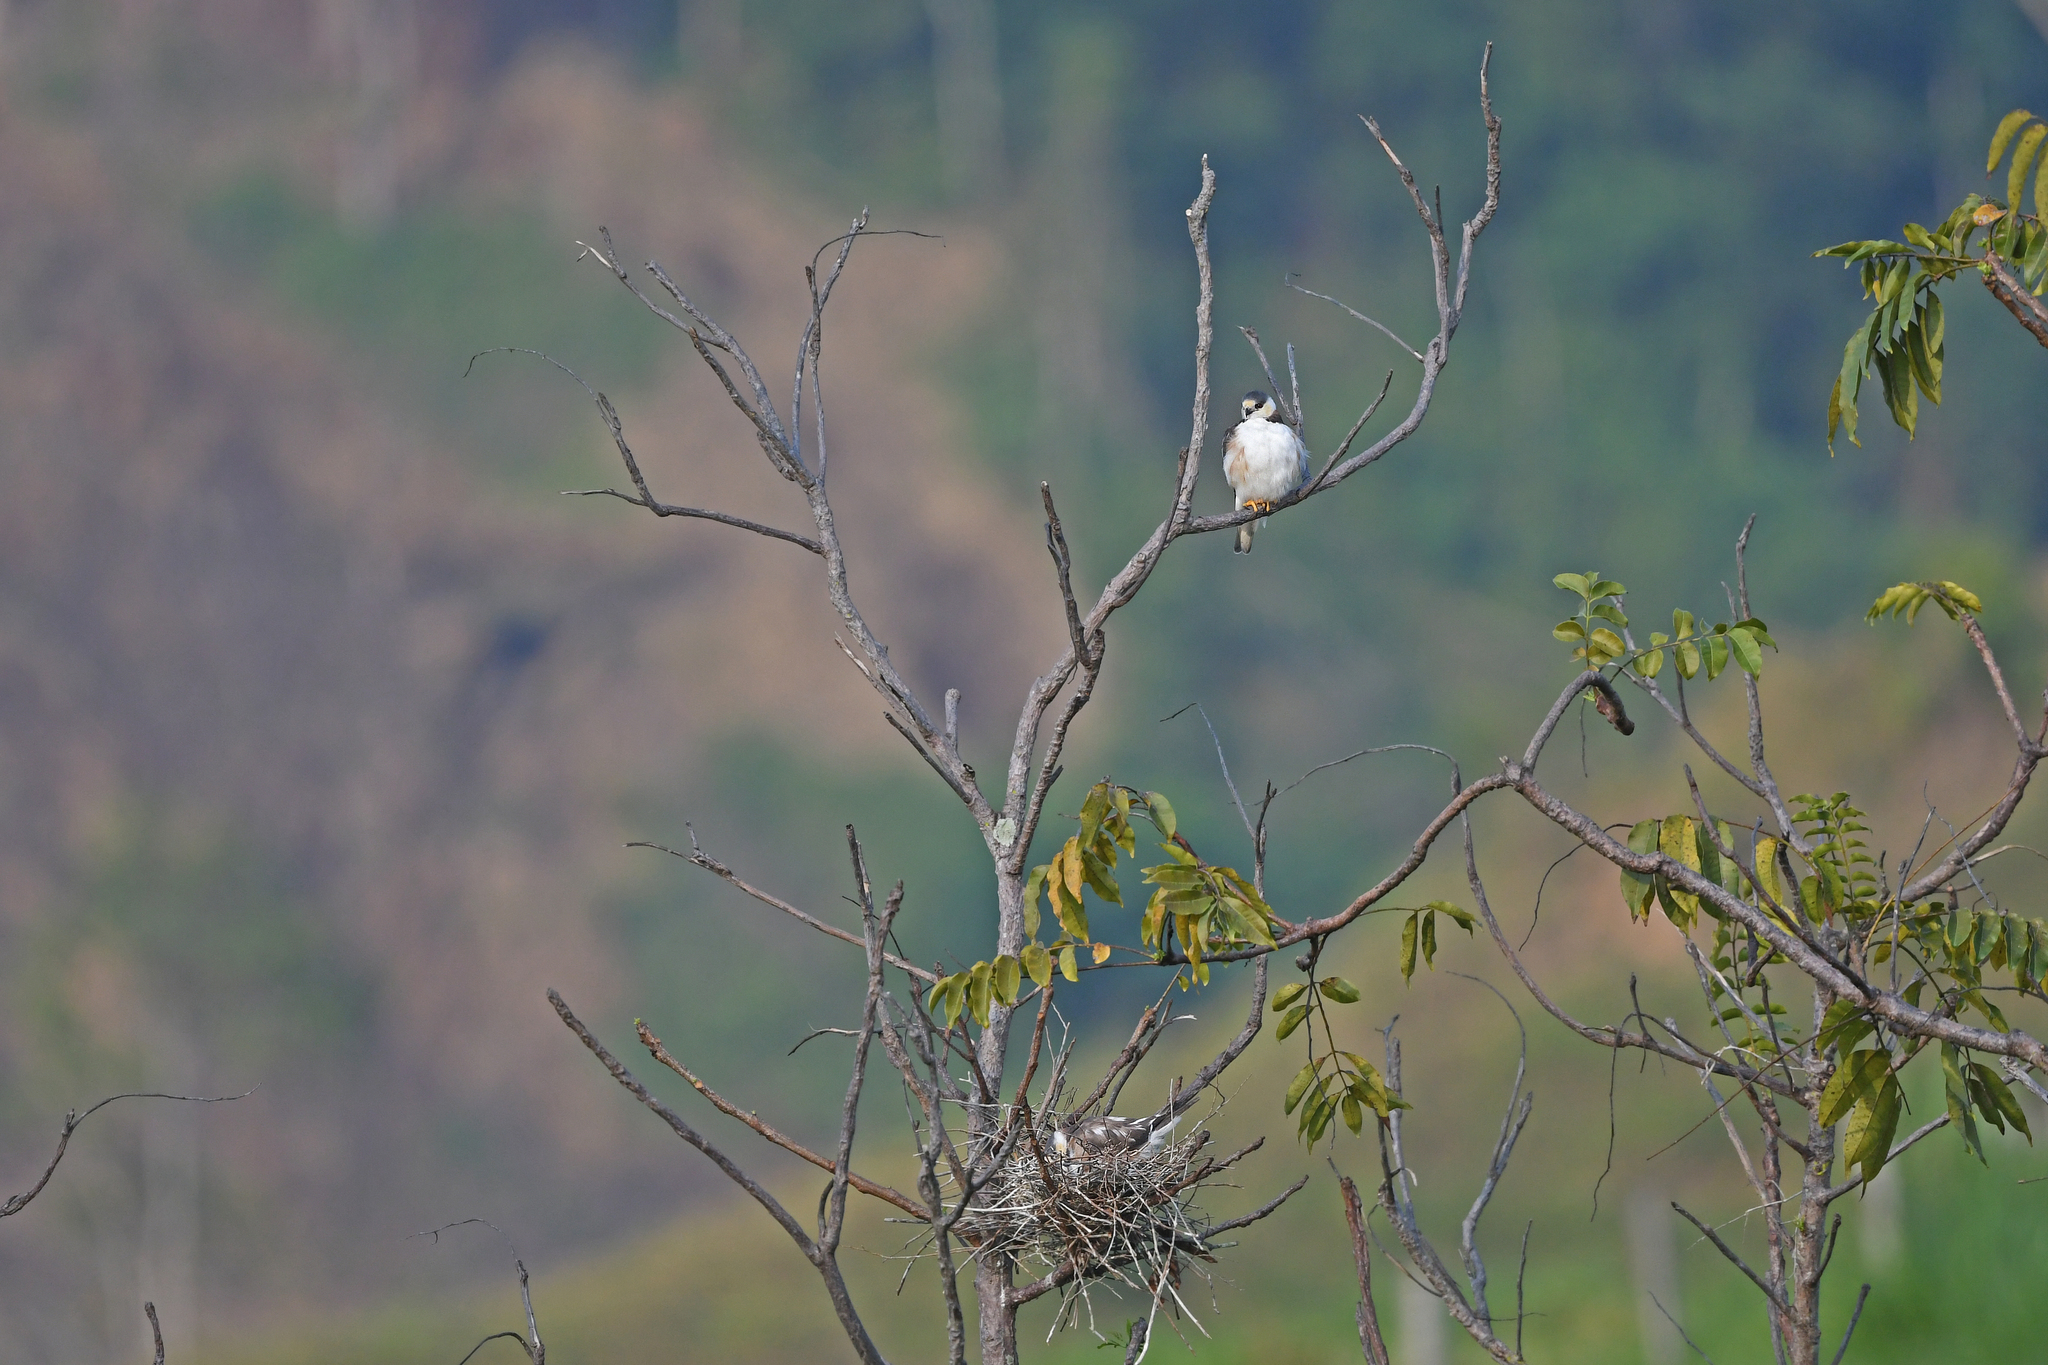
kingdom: Animalia
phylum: Chordata
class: Aves
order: Accipitriformes
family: Accipitridae
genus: Gampsonyx
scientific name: Gampsonyx swainsonii
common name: Pearl kite
